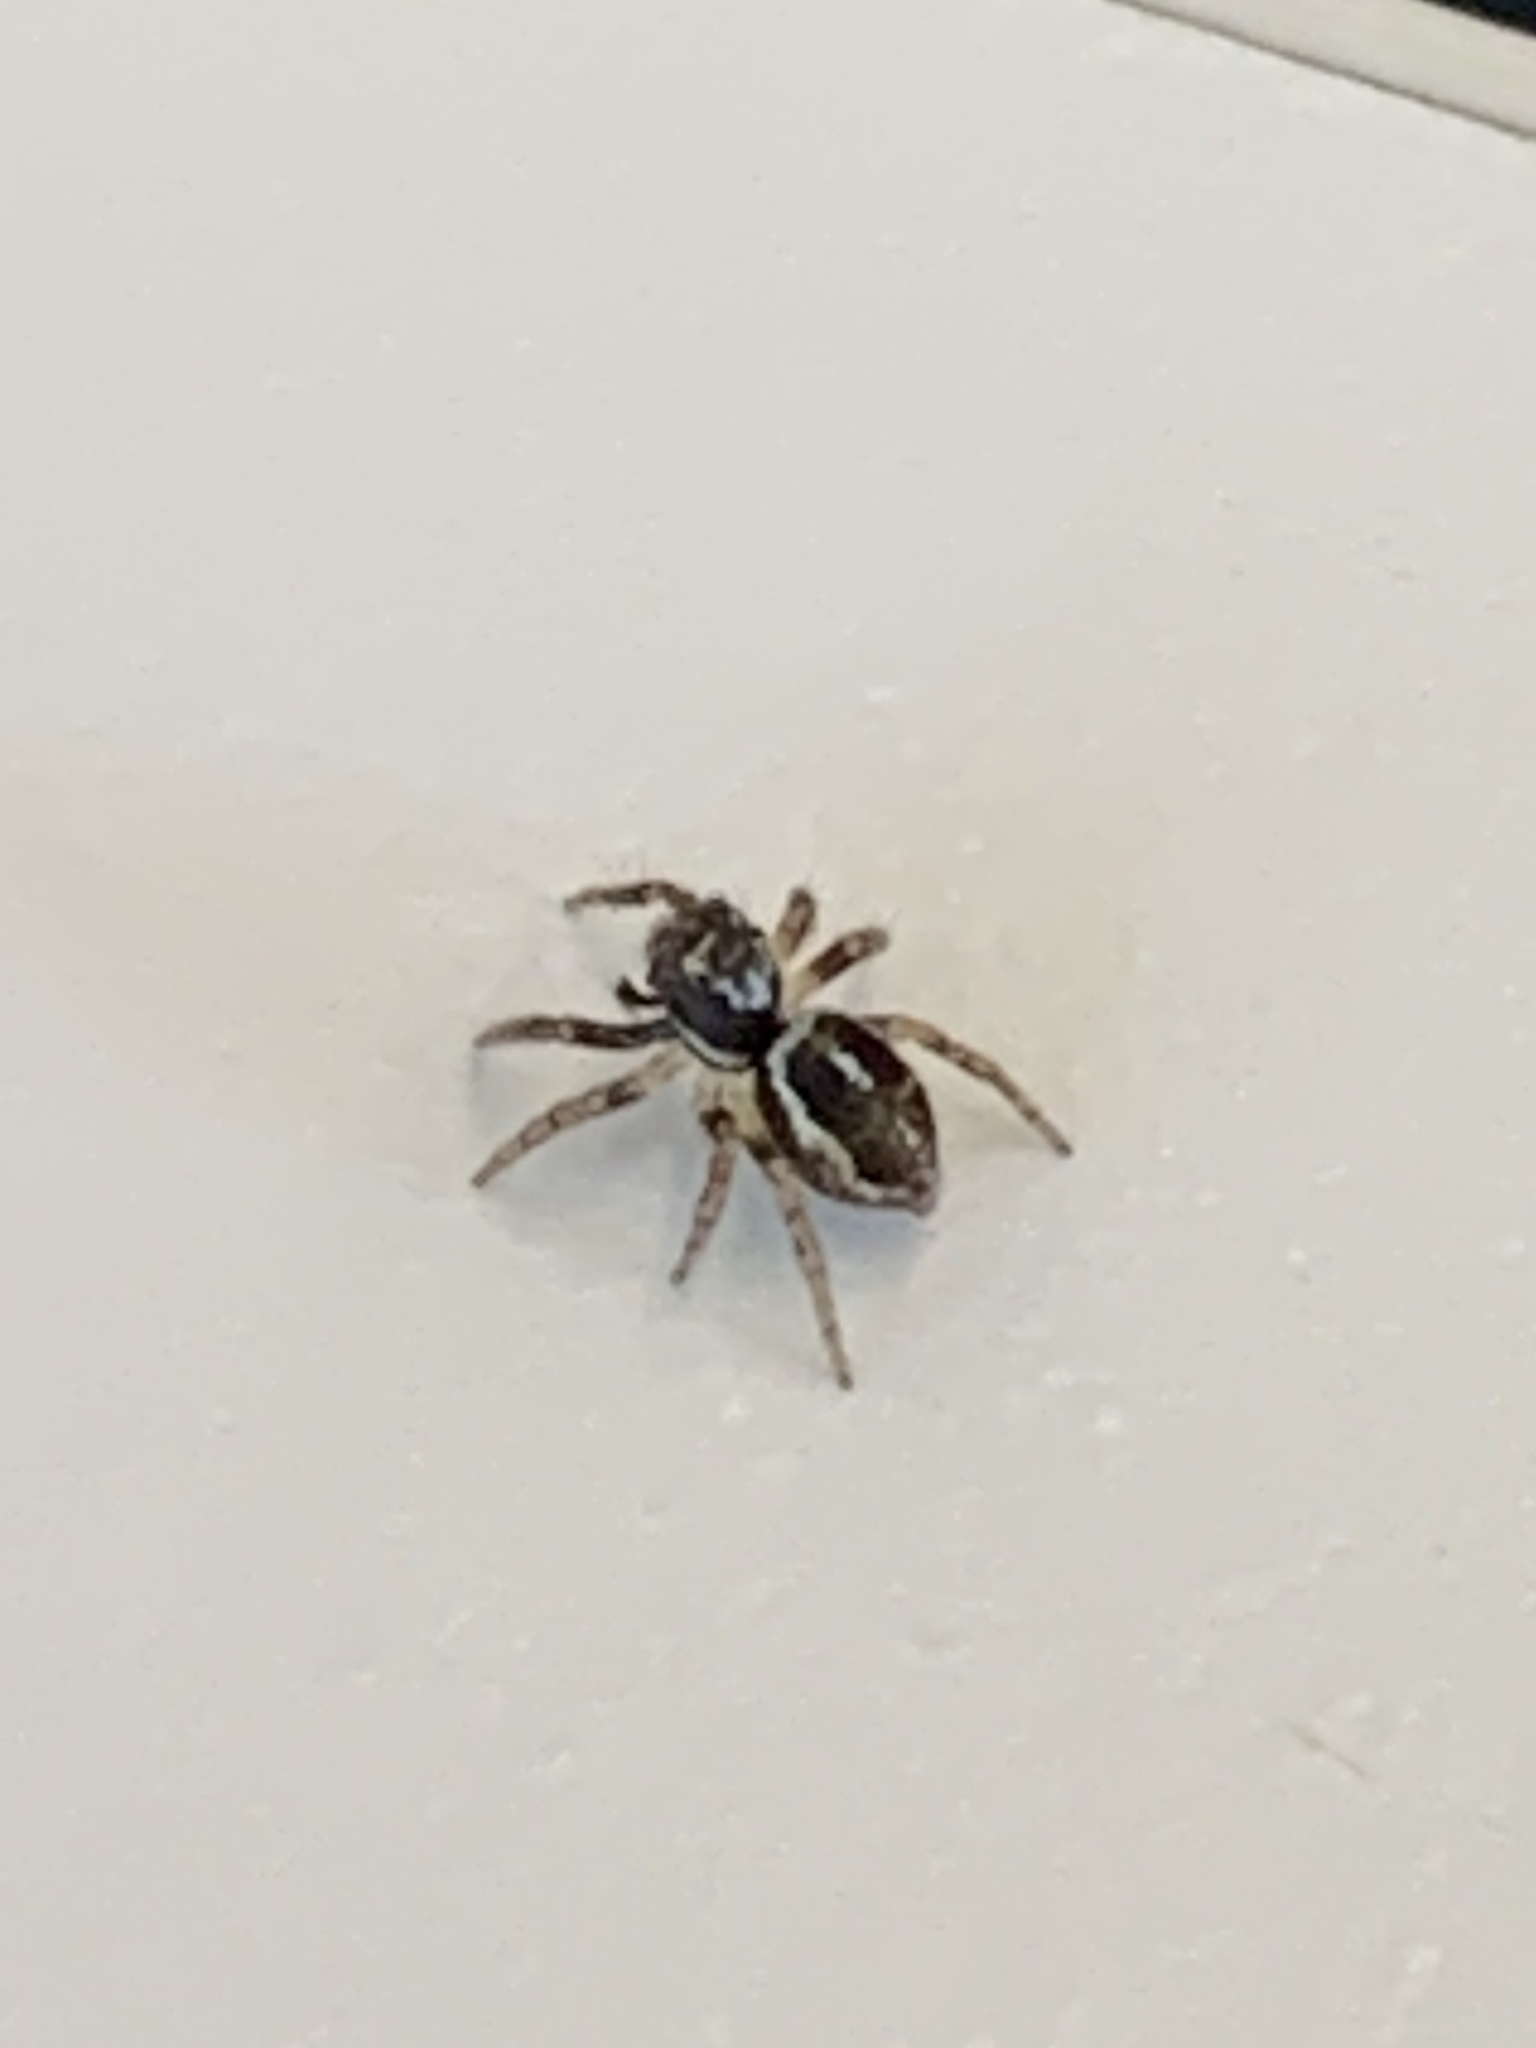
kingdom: Animalia
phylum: Arthropoda
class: Arachnida
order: Araneae
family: Salticidae
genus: Anasaitis
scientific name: Anasaitis canosa
